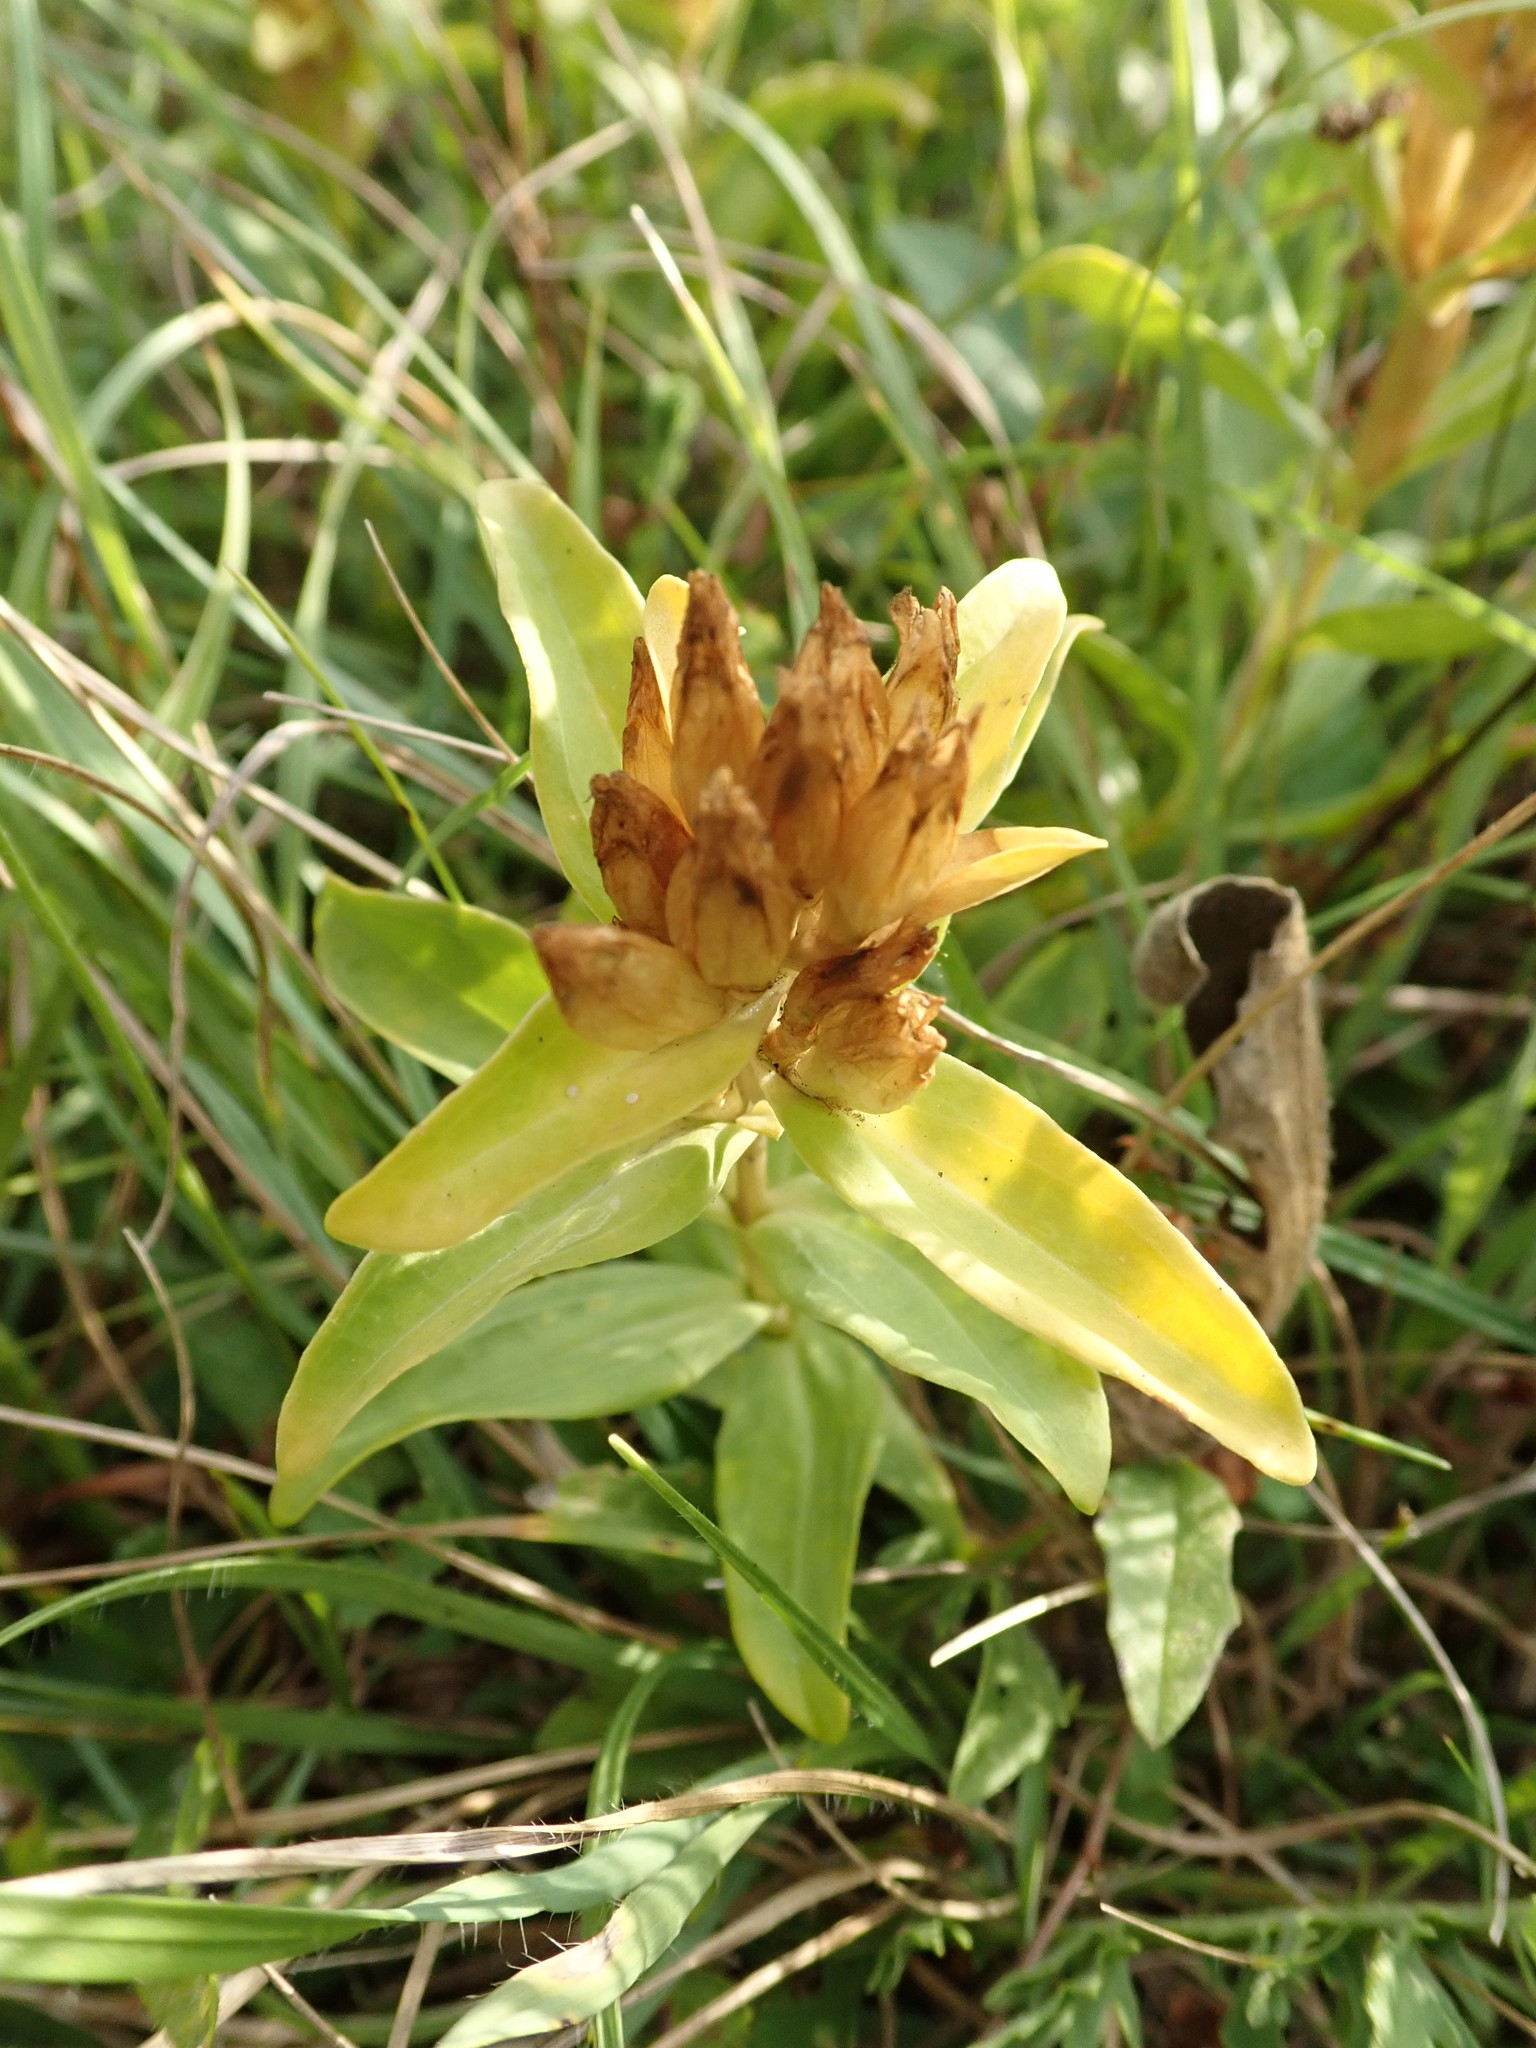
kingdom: Plantae
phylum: Tracheophyta
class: Magnoliopsida
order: Gentianales
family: Gentianaceae
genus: Gentiana
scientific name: Gentiana cruciata
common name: Cross gentian
